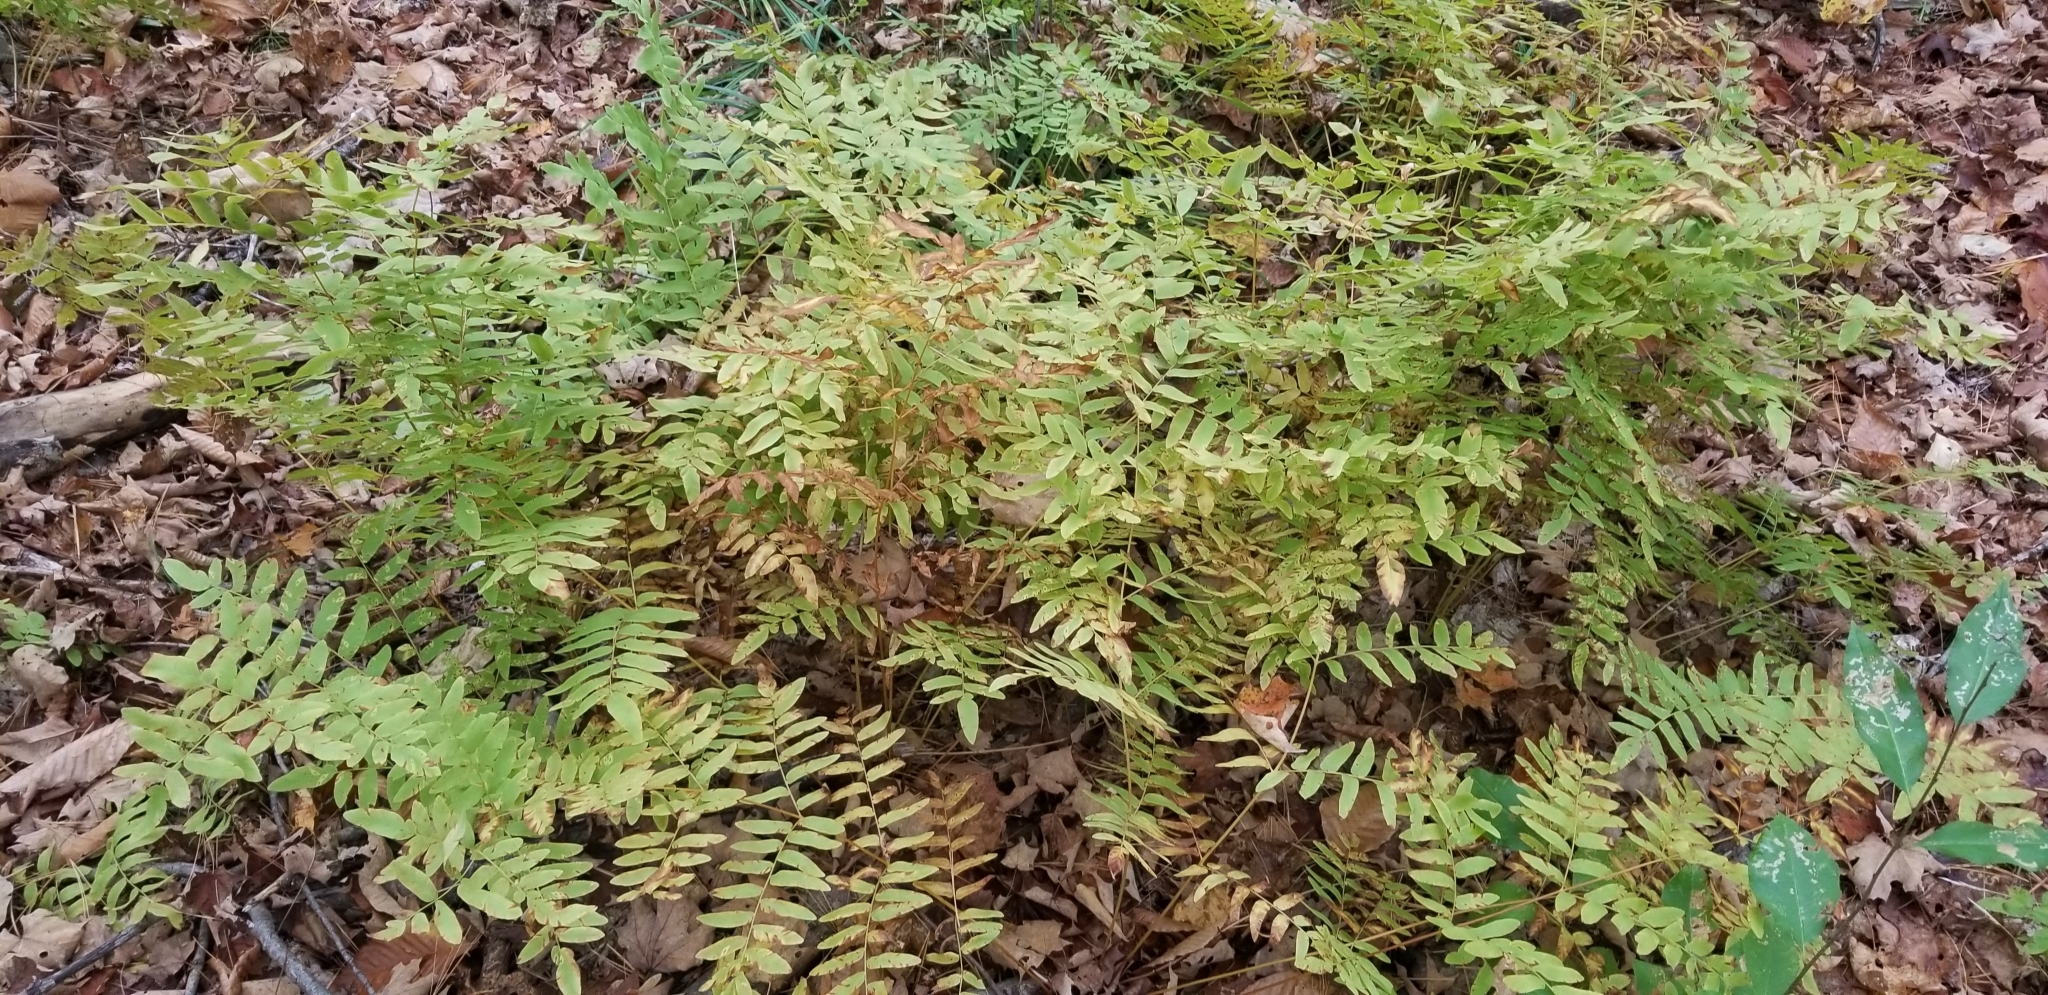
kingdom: Plantae
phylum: Tracheophyta
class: Polypodiopsida
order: Osmundales
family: Osmundaceae
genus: Osmunda
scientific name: Osmunda spectabilis
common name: American royal fern
